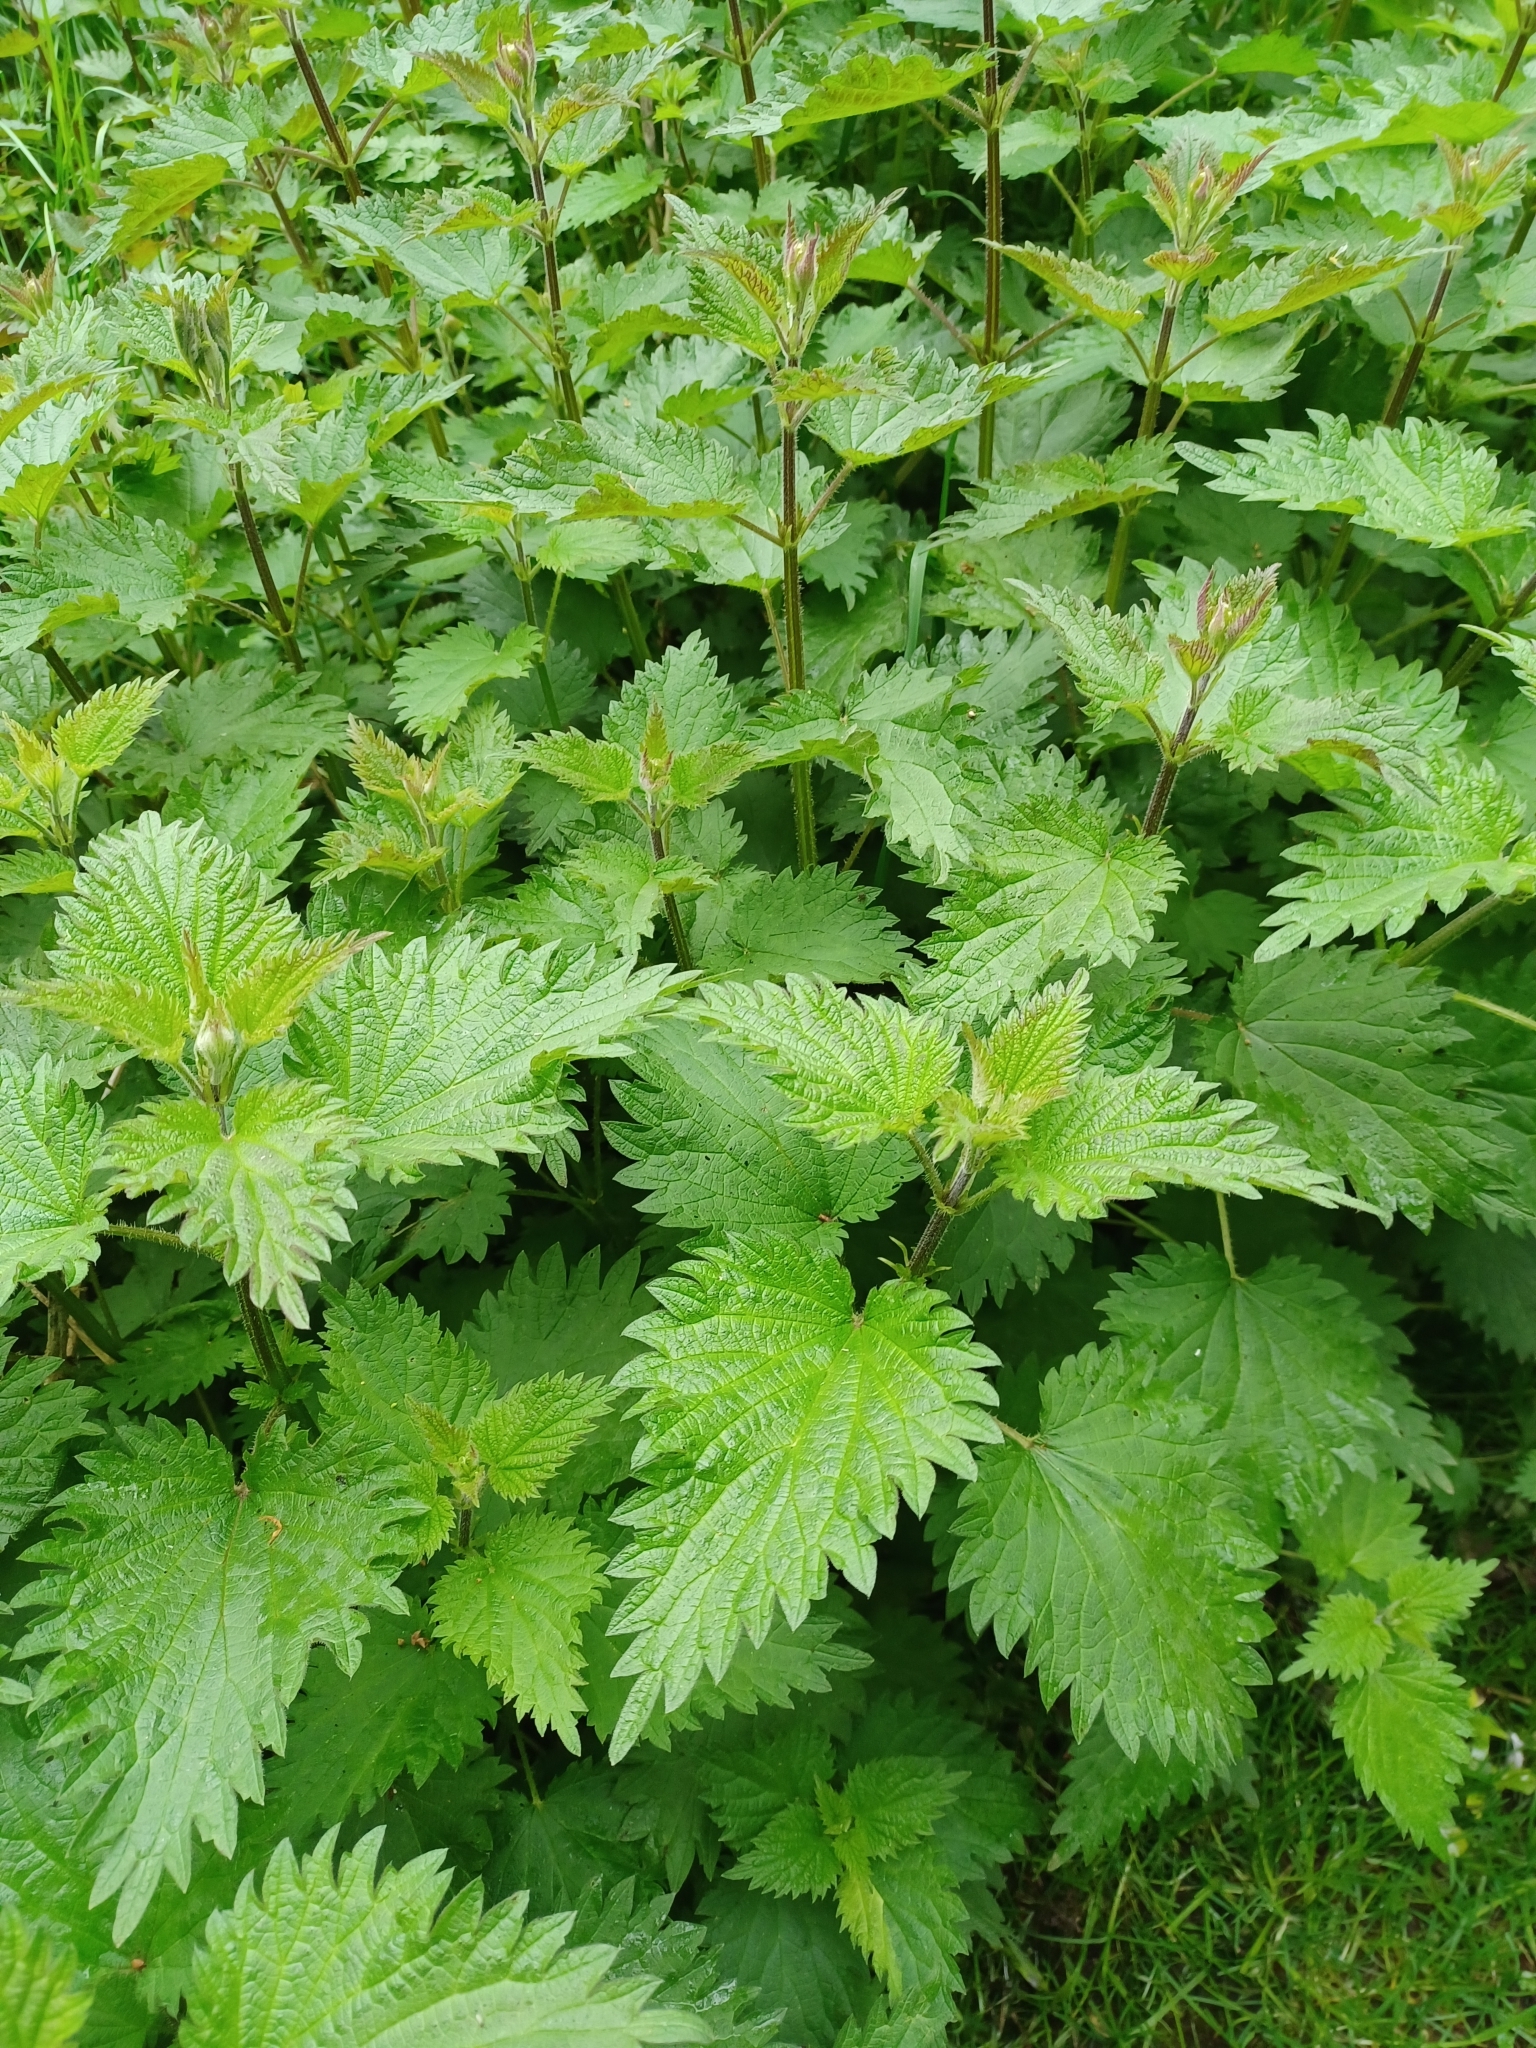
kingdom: Plantae
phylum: Tracheophyta
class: Magnoliopsida
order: Rosales
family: Urticaceae
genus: Urtica
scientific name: Urtica dioica
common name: Common nettle
